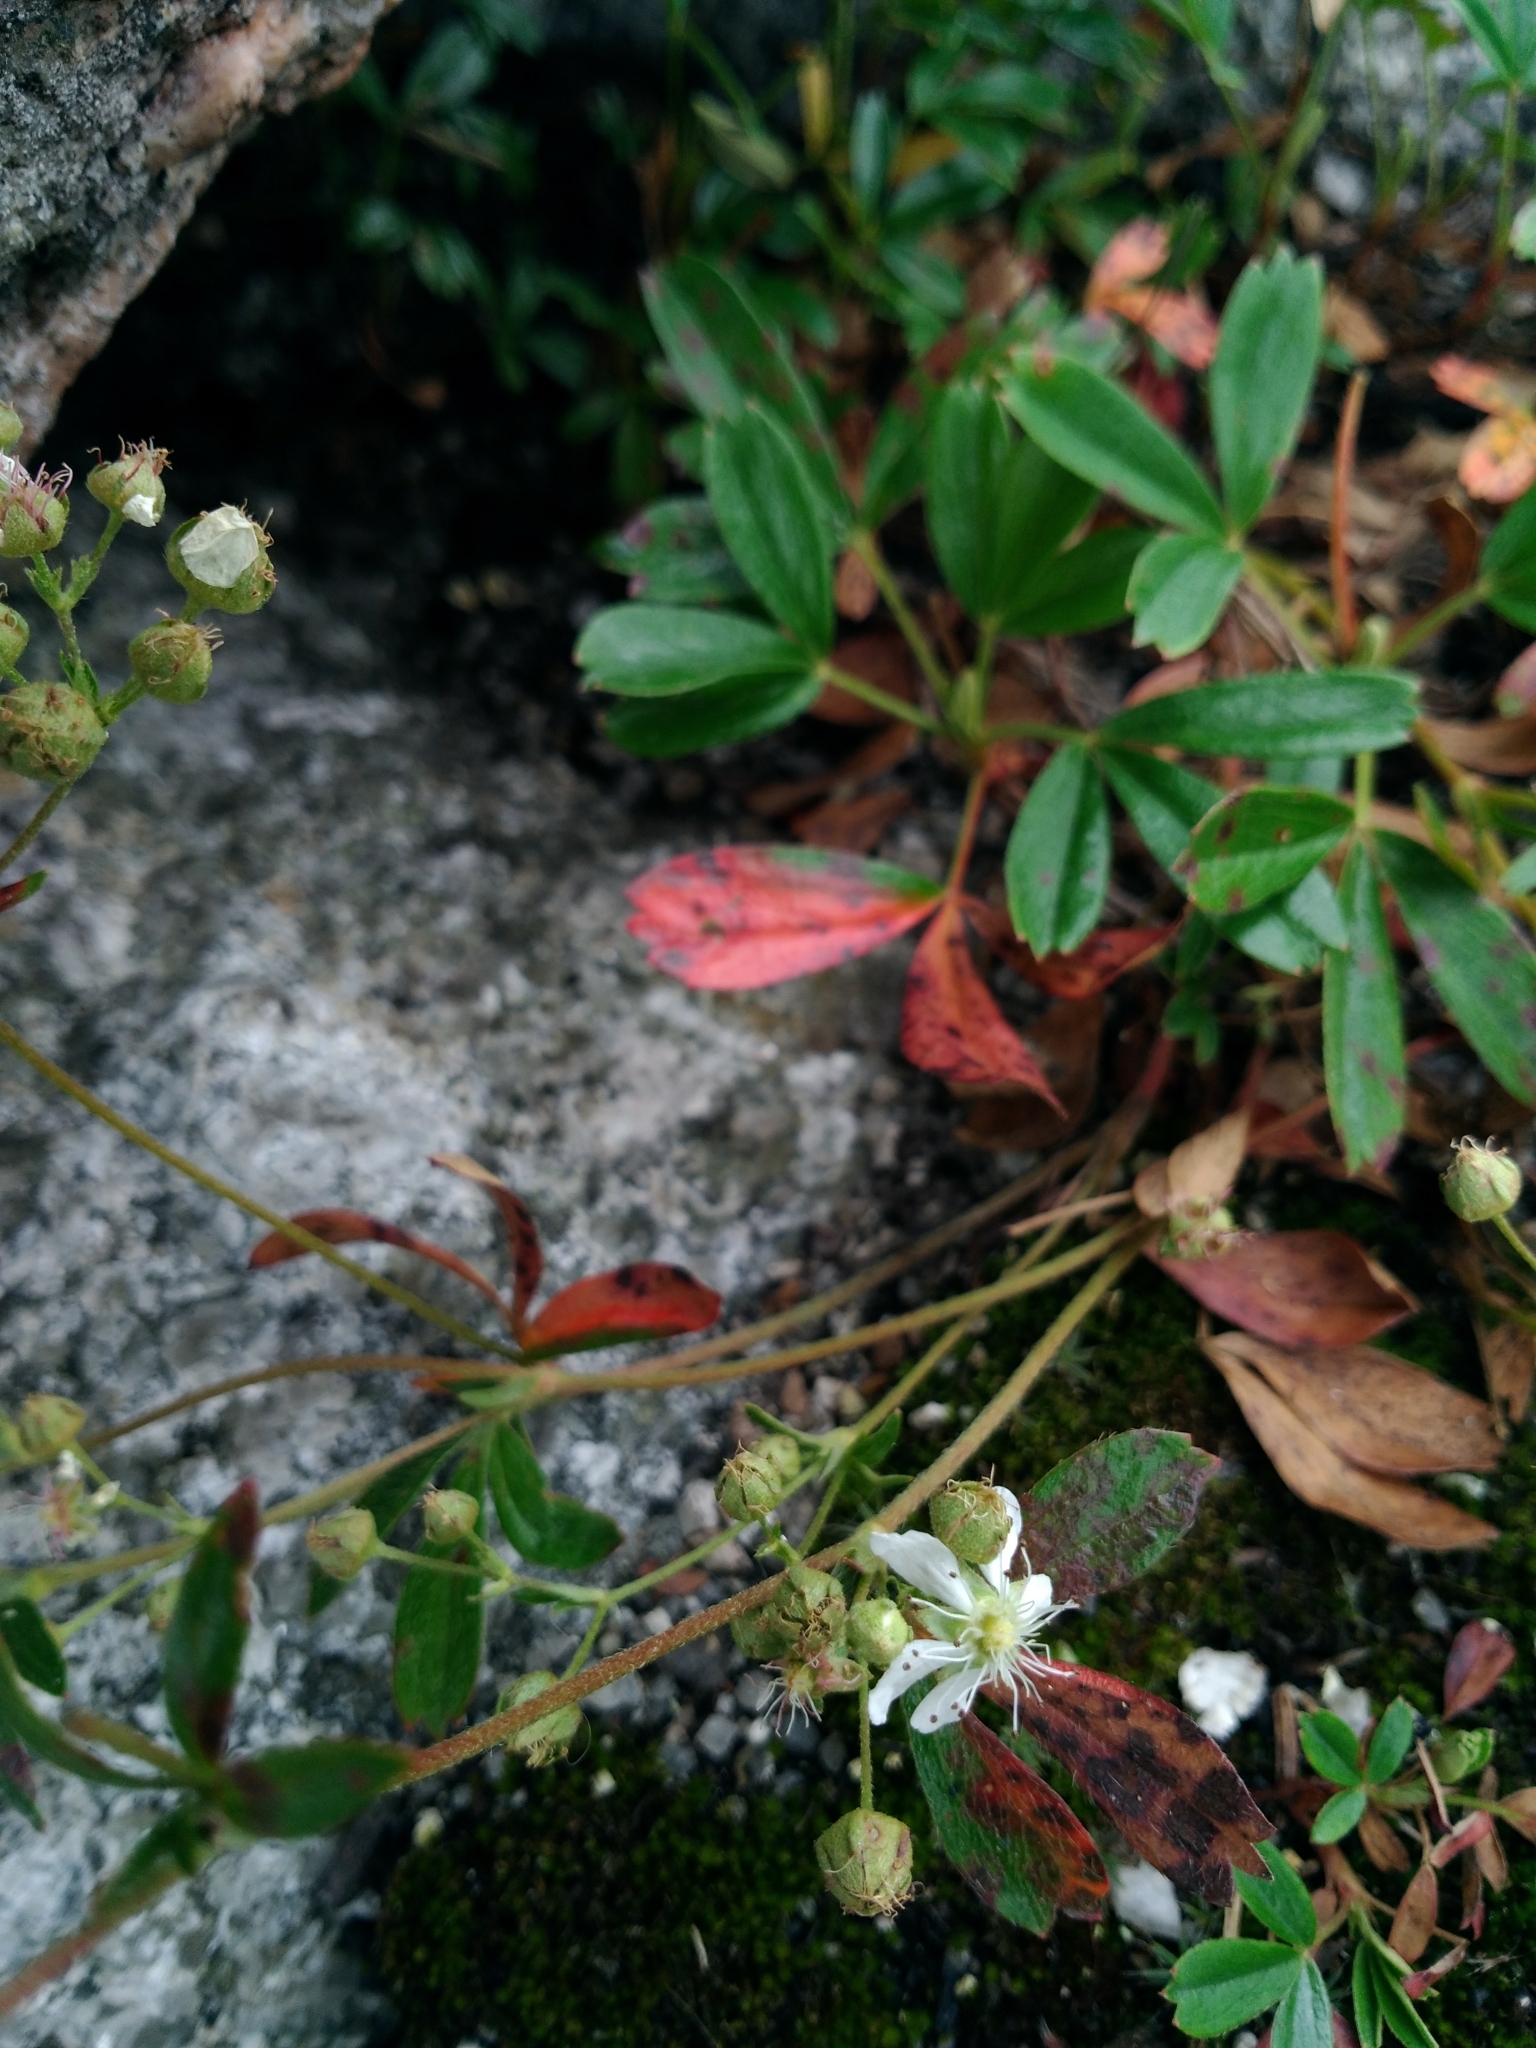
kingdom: Plantae
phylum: Tracheophyta
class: Magnoliopsida
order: Rosales
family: Rosaceae
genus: Sibbaldia
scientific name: Sibbaldia tridentata
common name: Three-toothed cinquefoil
